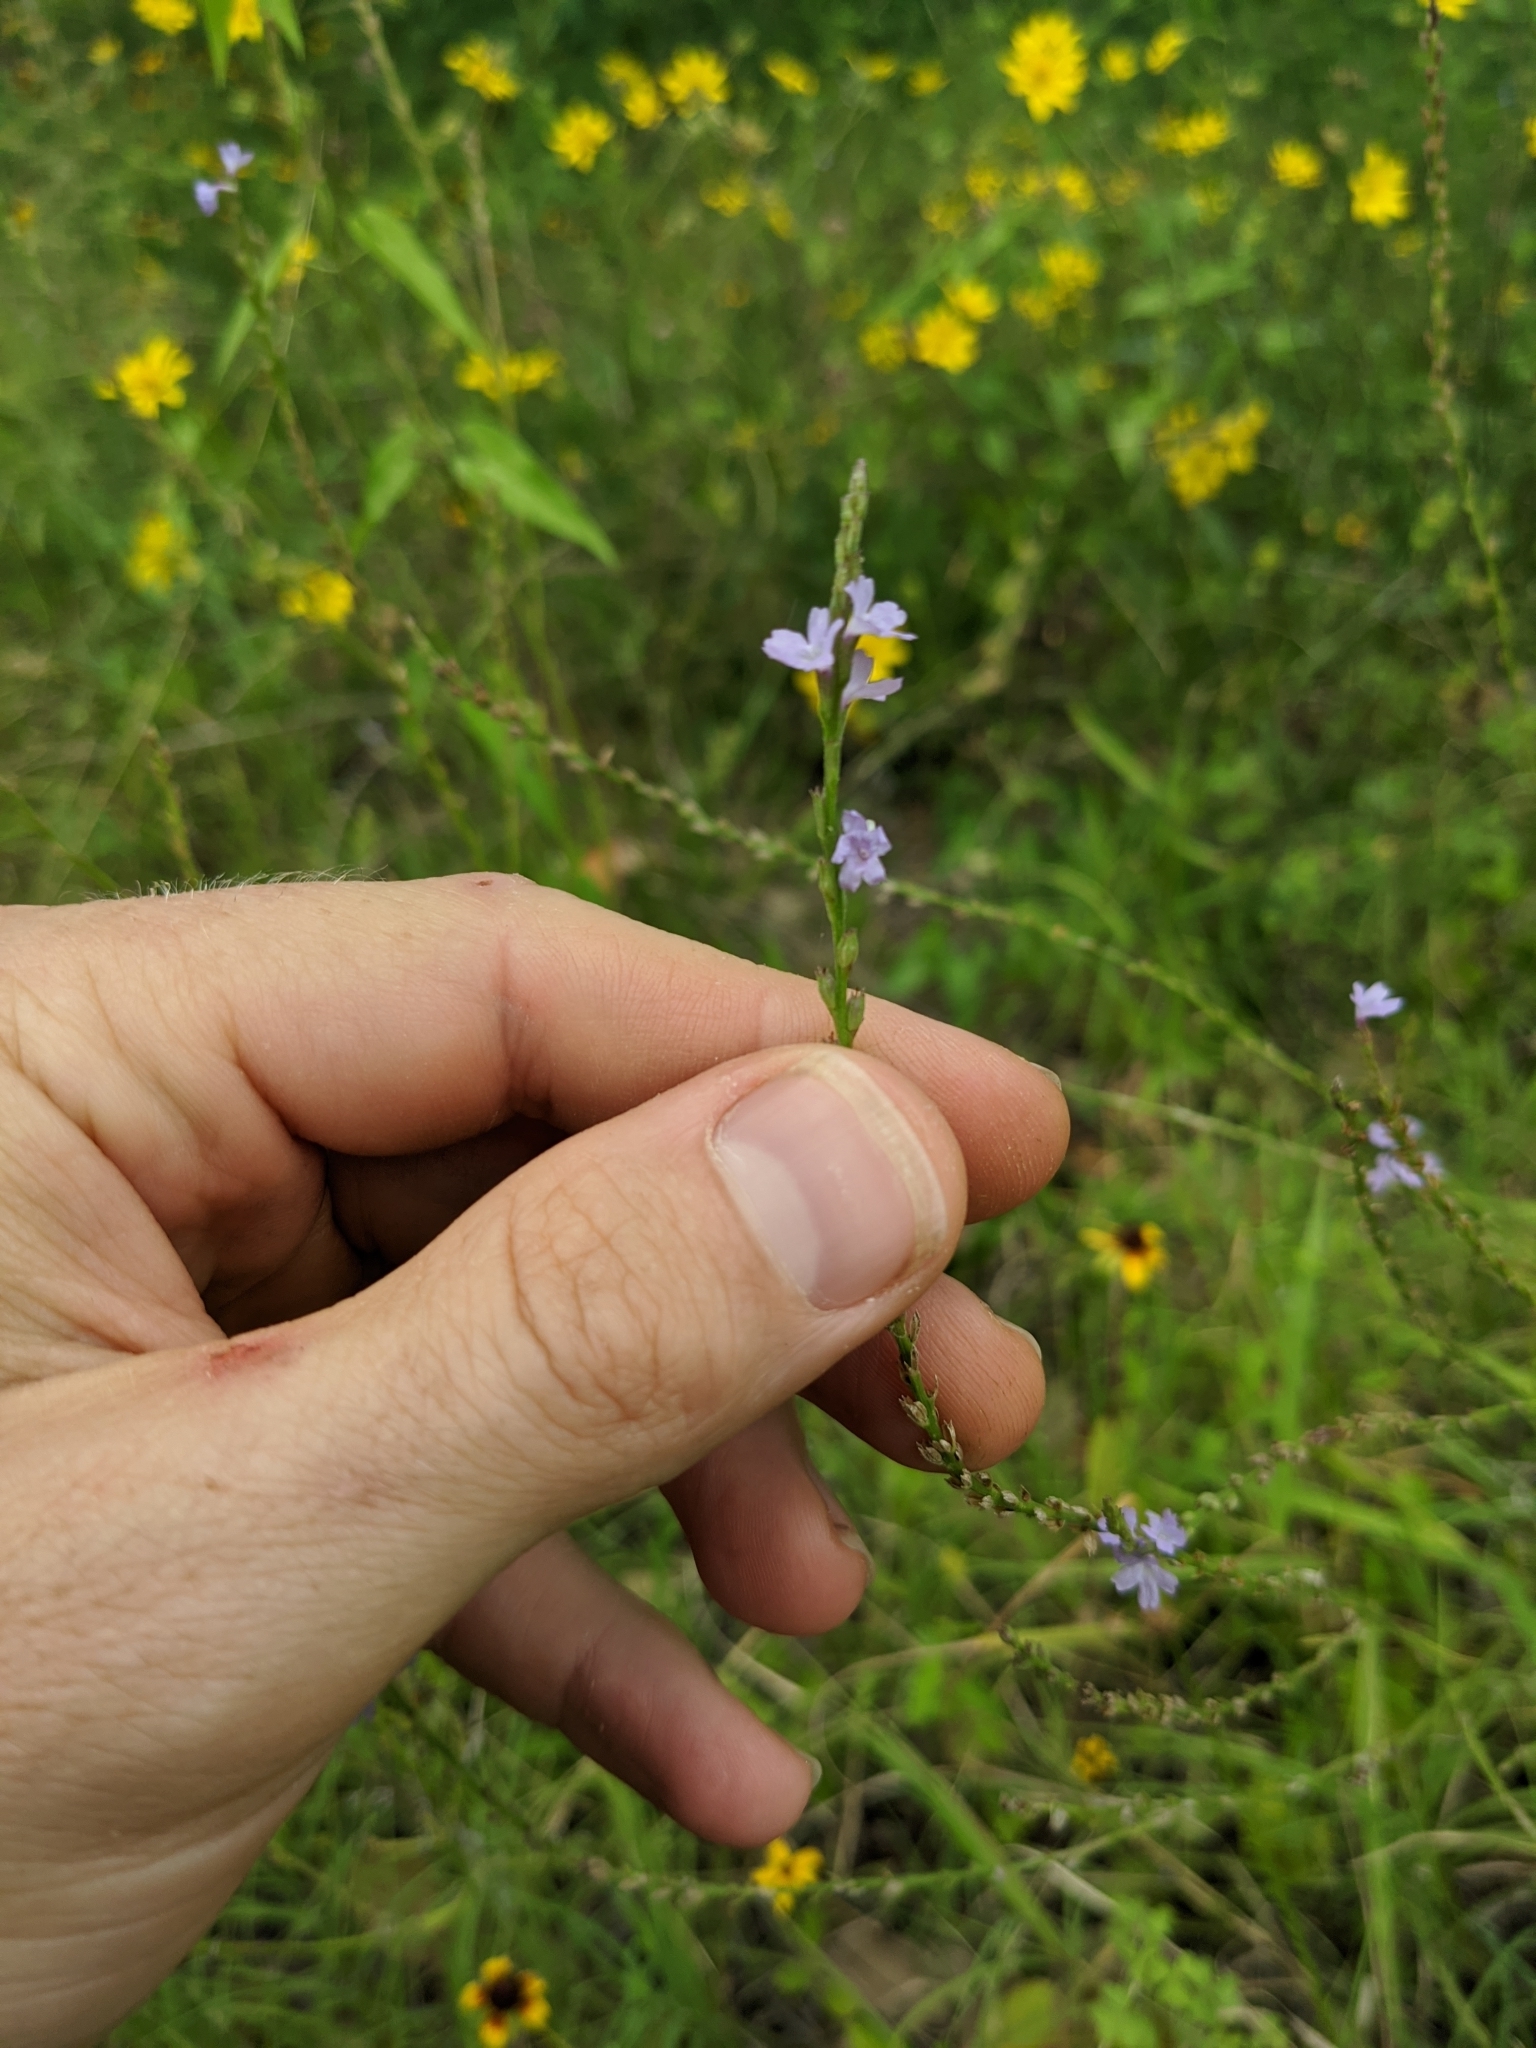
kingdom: Plantae
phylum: Tracheophyta
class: Magnoliopsida
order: Lamiales
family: Verbenaceae
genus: Verbena
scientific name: Verbena halei
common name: Texas vervain
